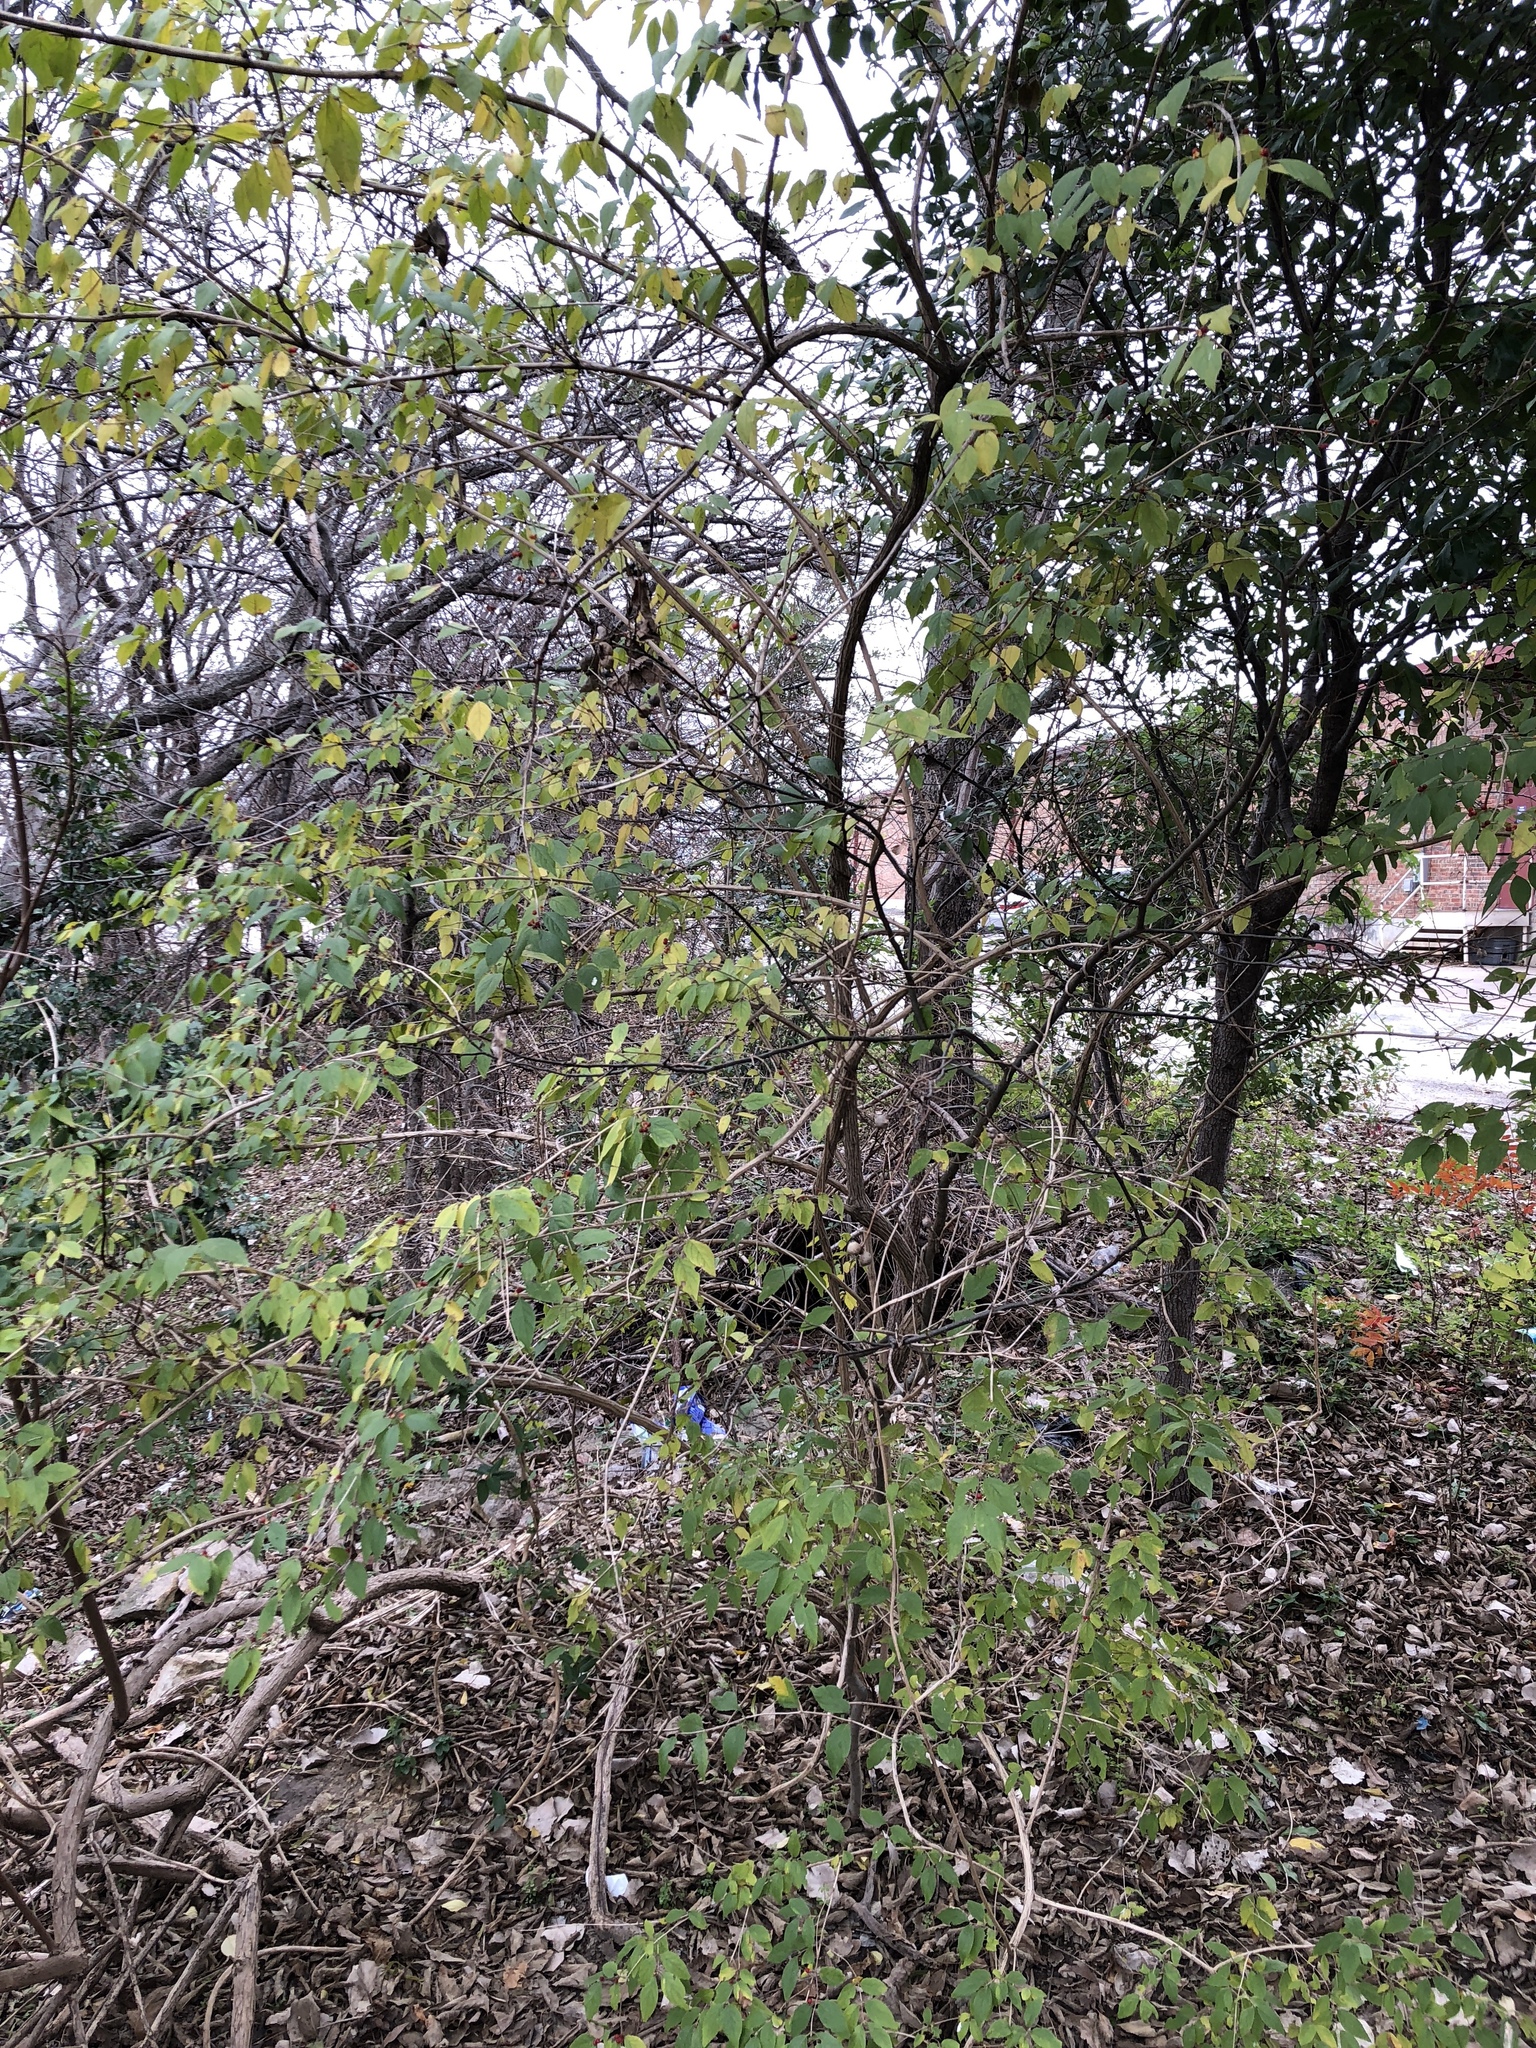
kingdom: Plantae
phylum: Tracheophyta
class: Magnoliopsida
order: Dipsacales
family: Caprifoliaceae
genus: Lonicera
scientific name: Lonicera maackii
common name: Amur honeysuckle
